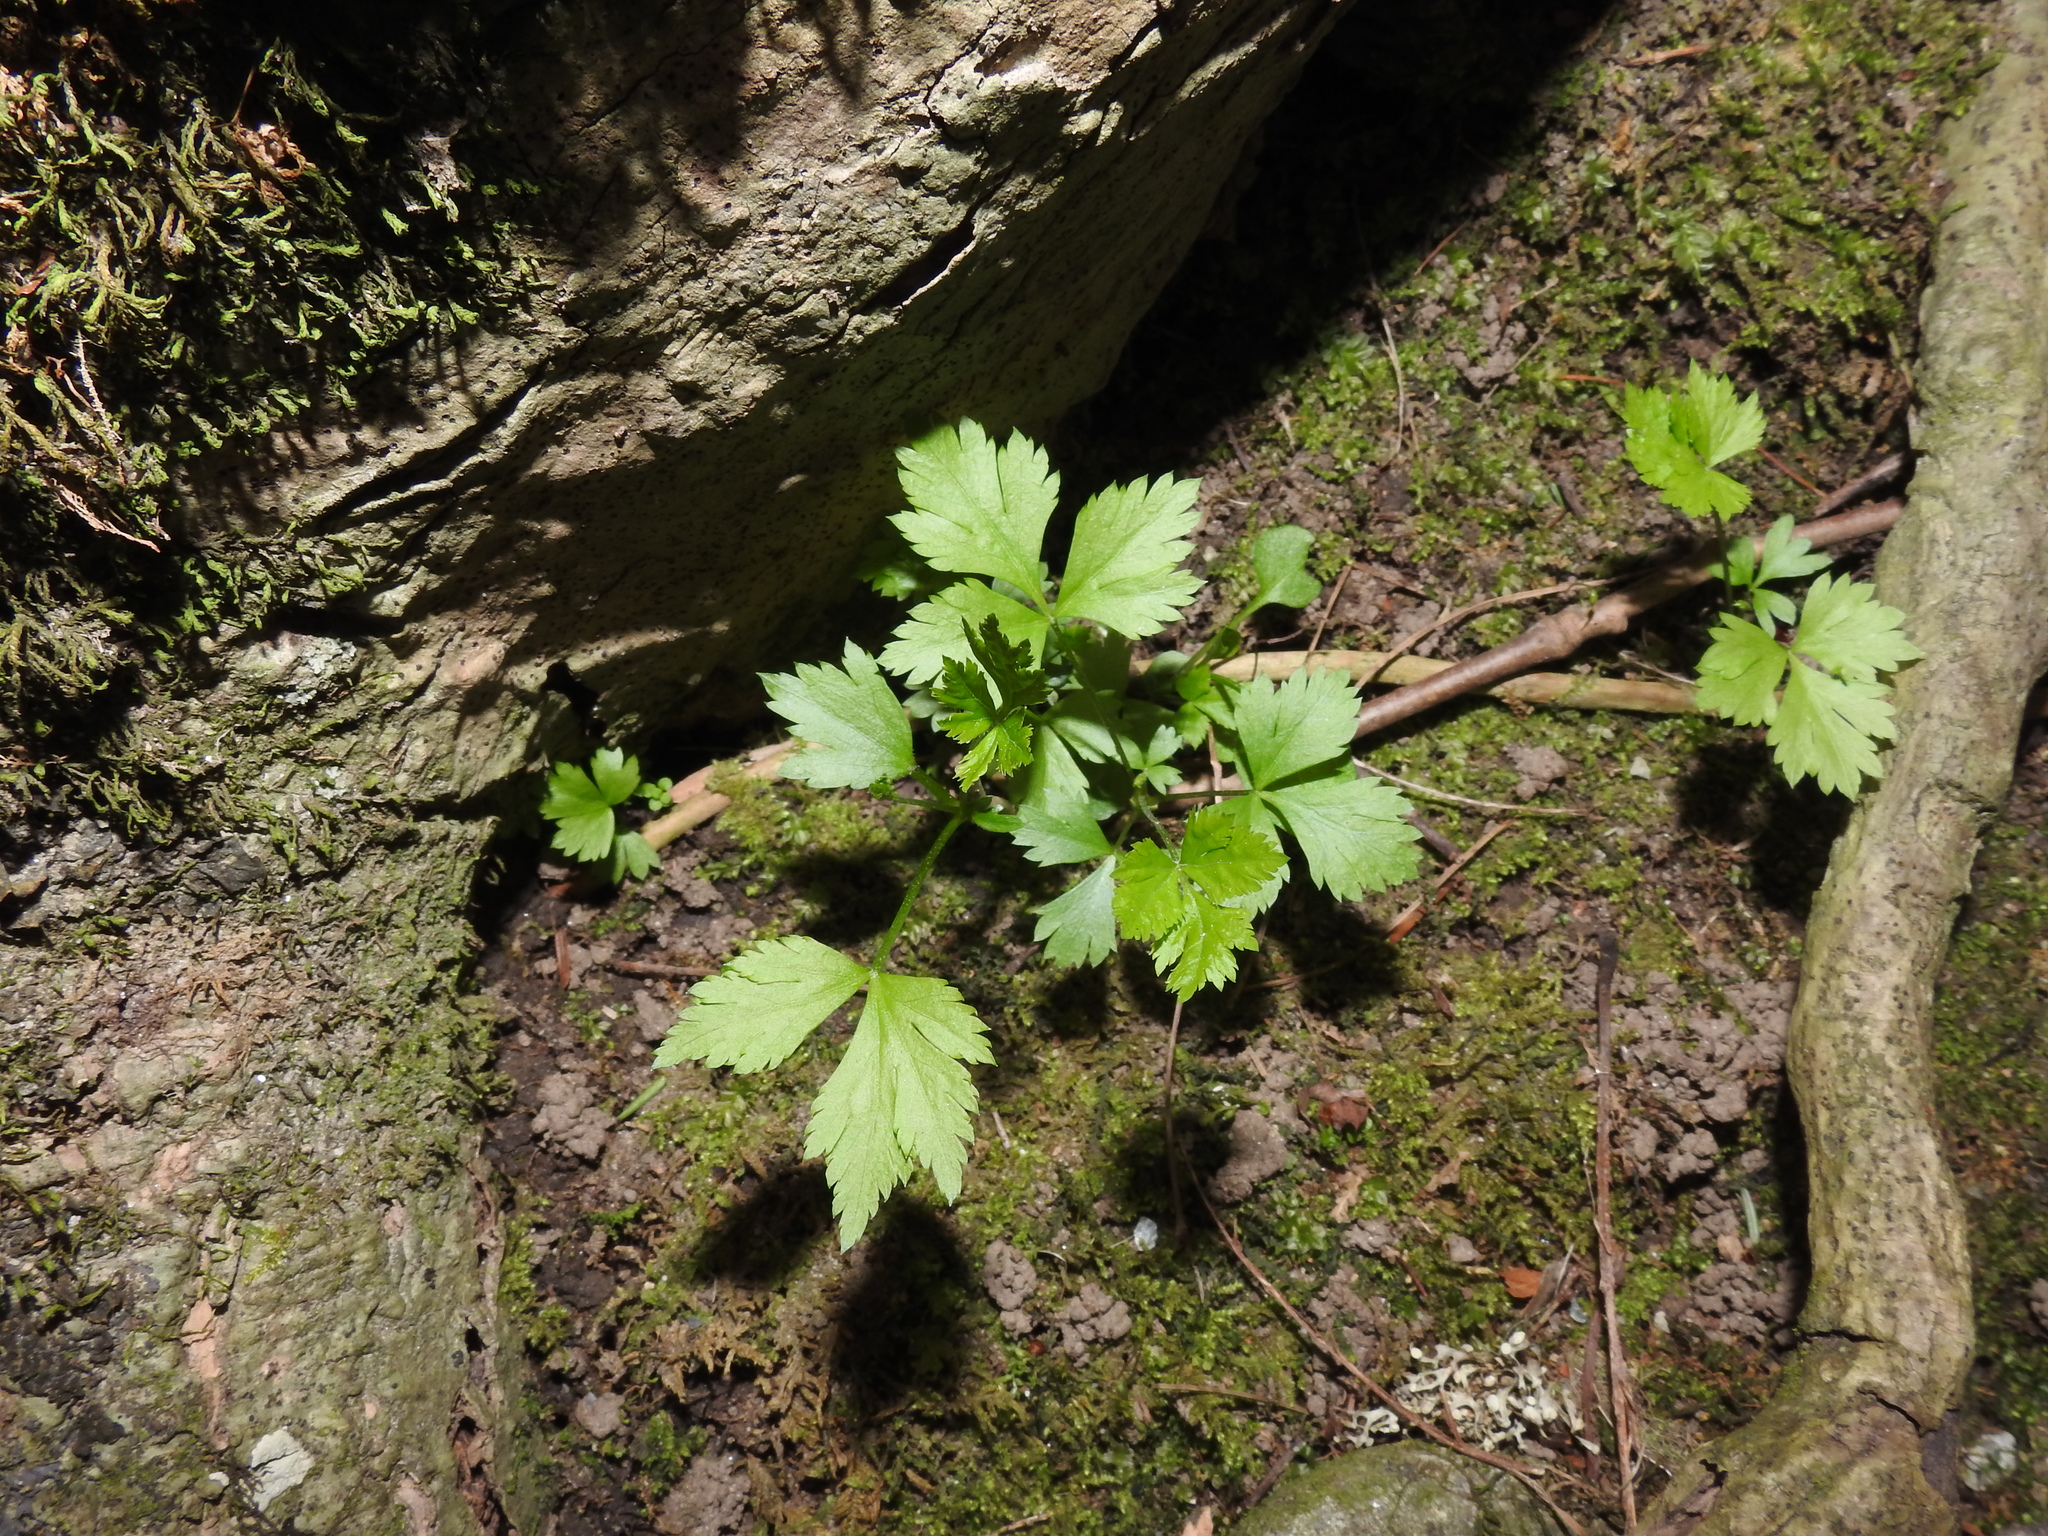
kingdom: Plantae
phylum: Tracheophyta
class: Magnoliopsida
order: Ranunculales
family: Ranunculaceae
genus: Xanthorhiza
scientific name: Xanthorhiza simplicissima
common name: Yellowroot
